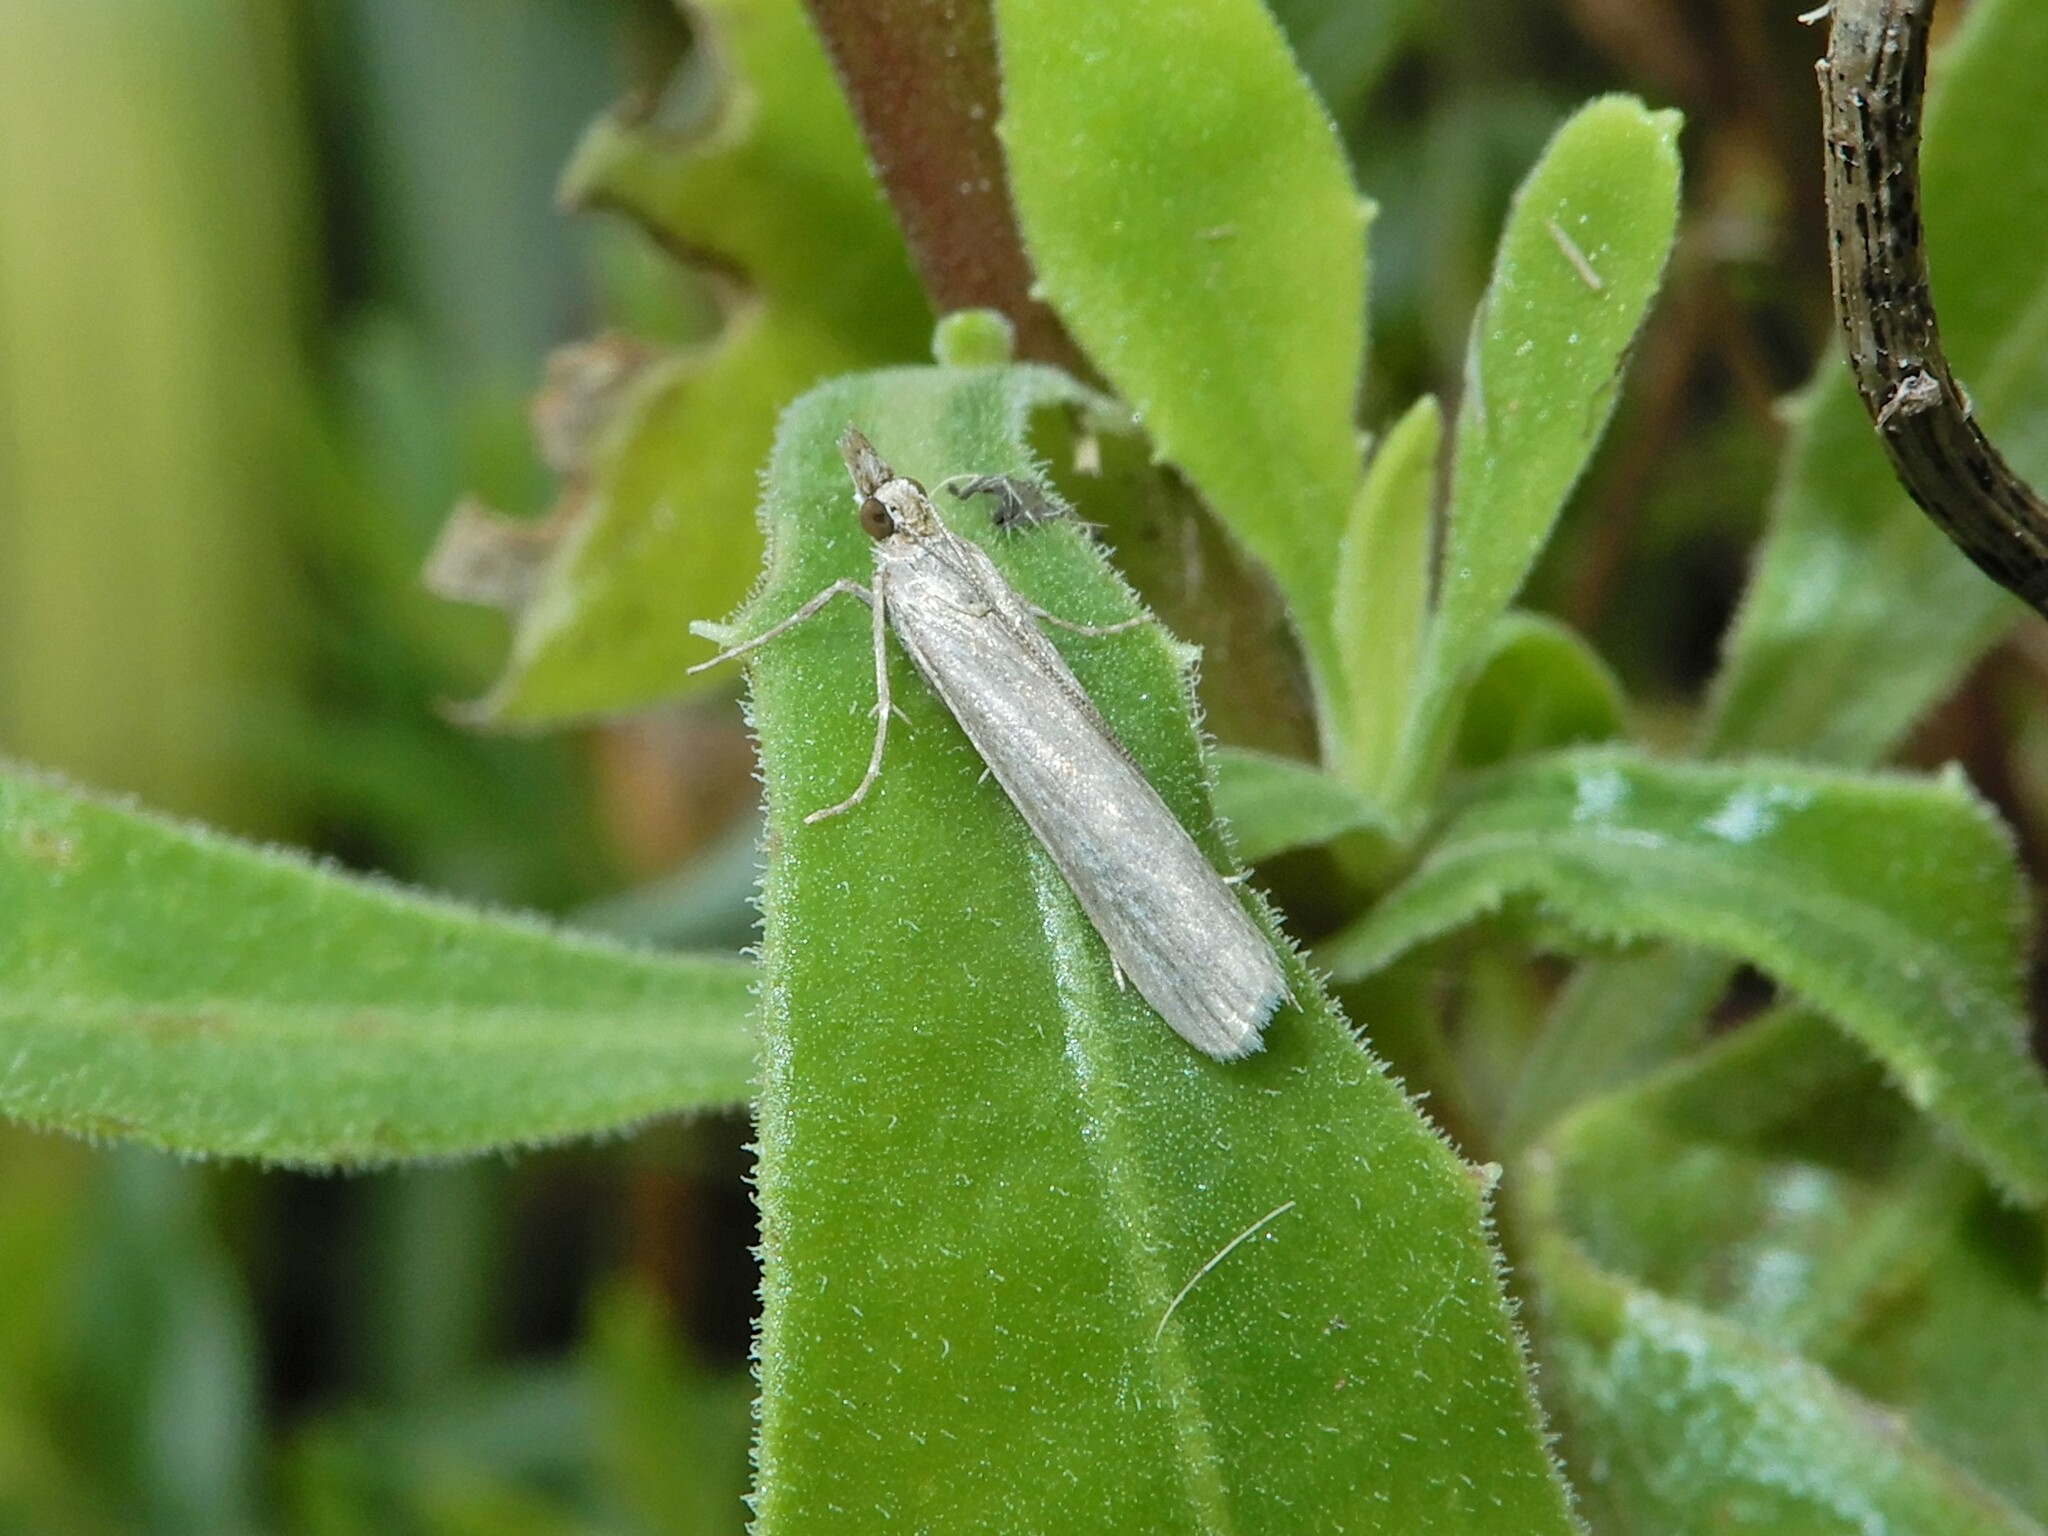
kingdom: Animalia
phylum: Arthropoda
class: Insecta
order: Lepidoptera
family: Crambidae
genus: Eudonia
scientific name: Eudonia leptalea
